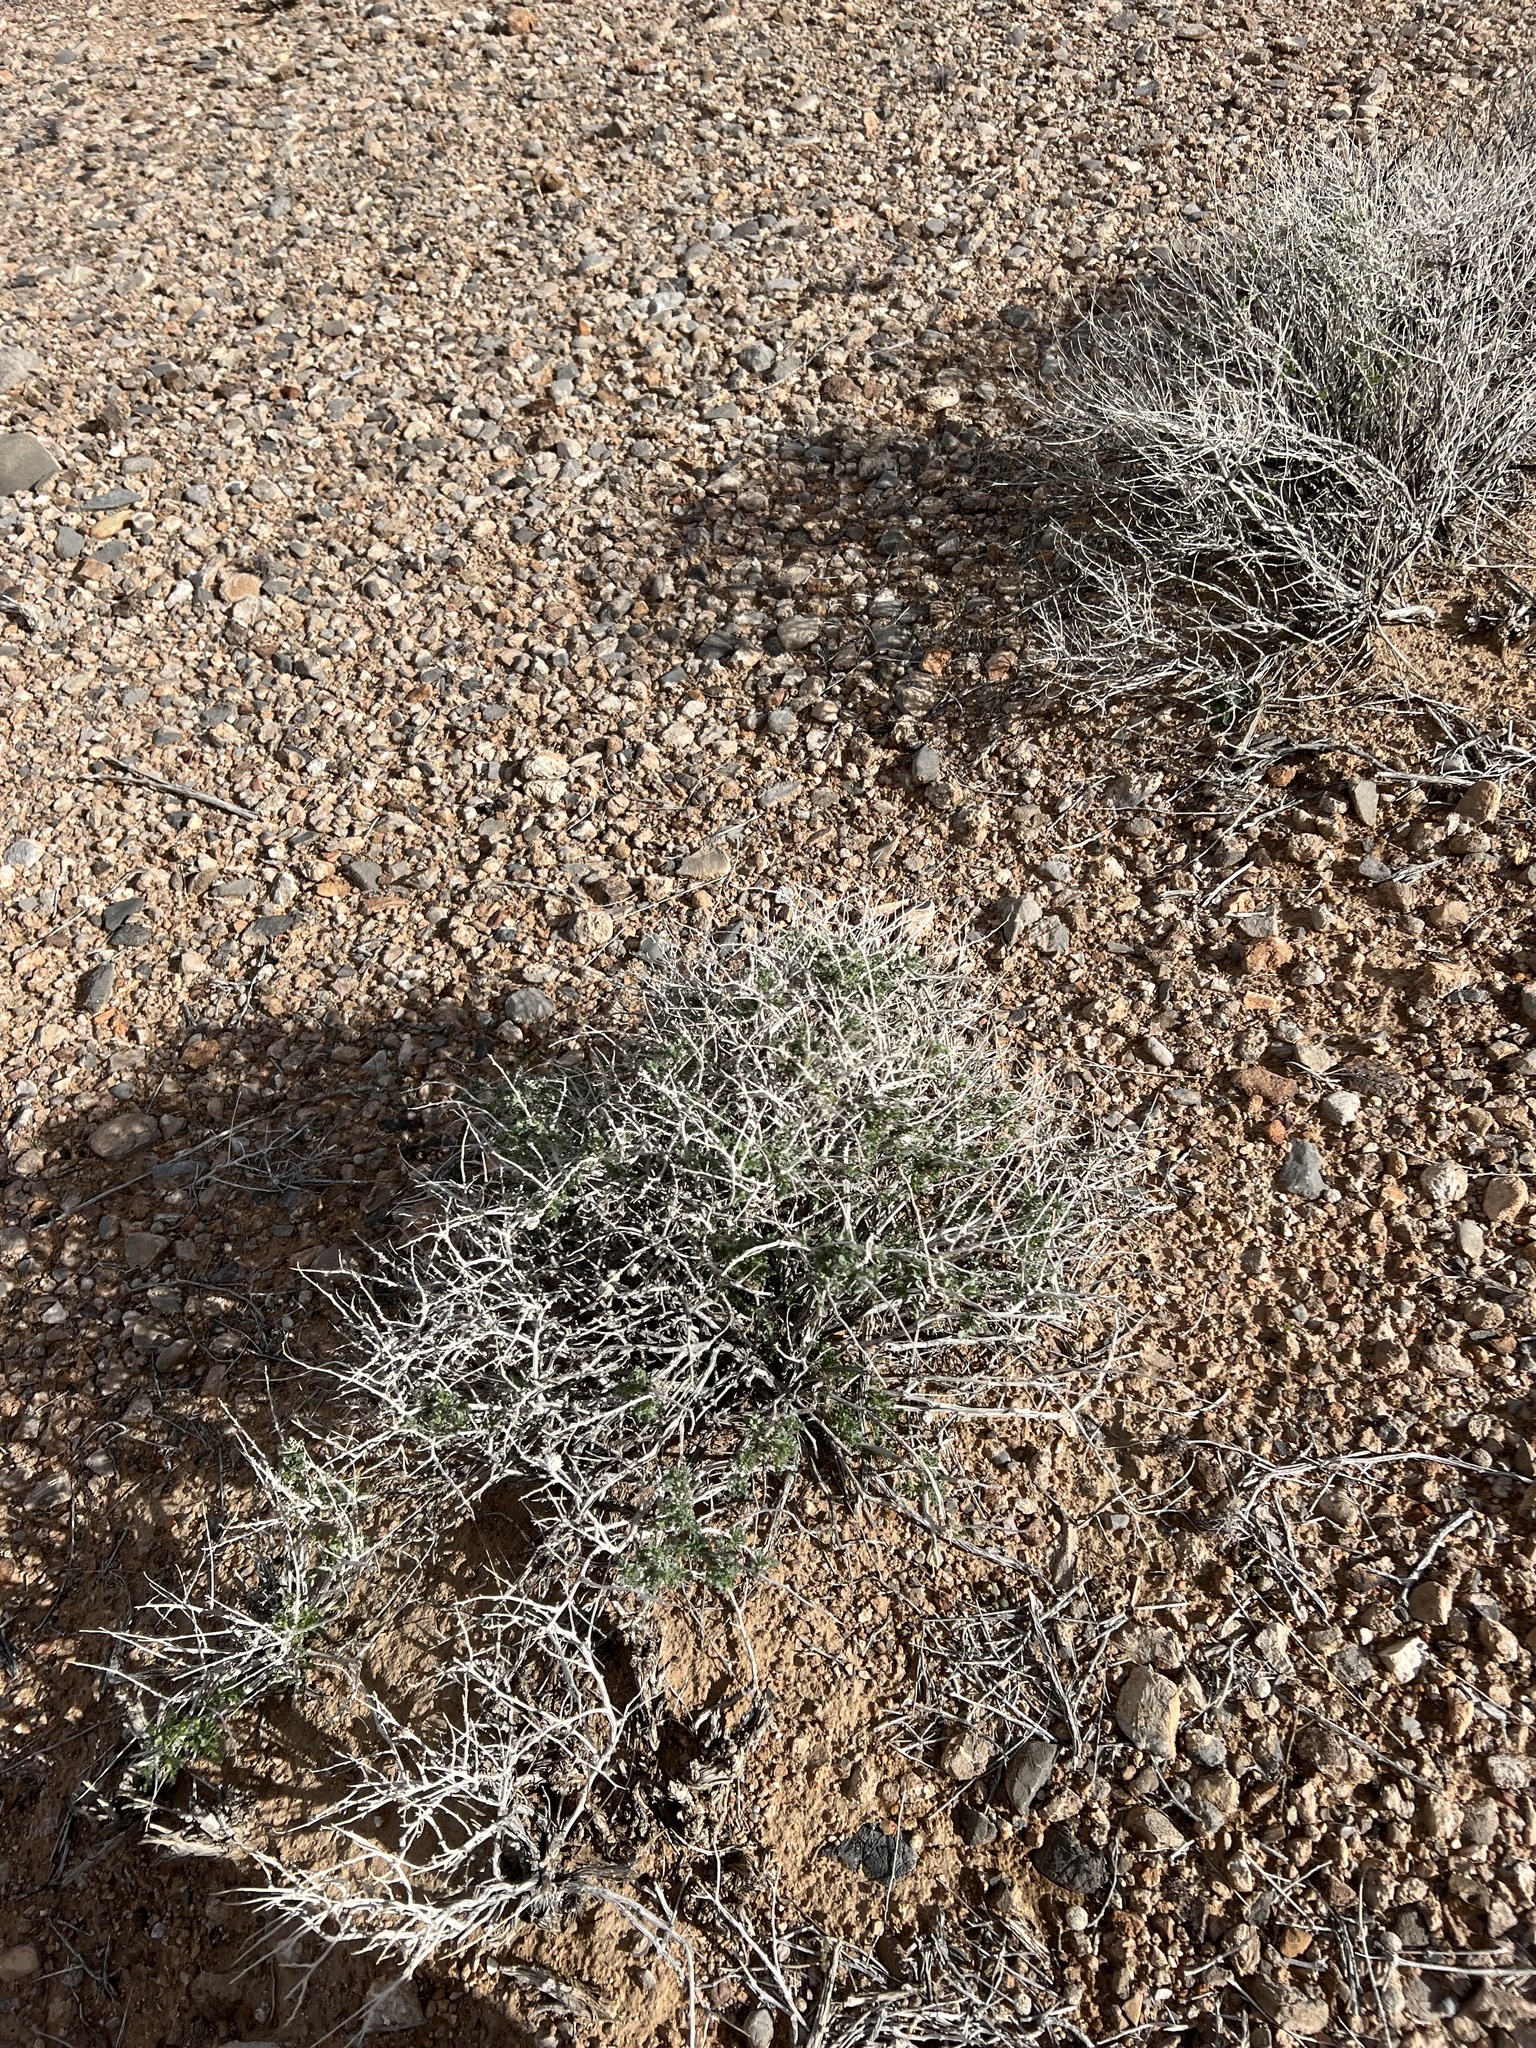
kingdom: Plantae
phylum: Tracheophyta
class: Magnoliopsida
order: Asterales
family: Asteraceae
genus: Ambrosia
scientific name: Ambrosia dumosa
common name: Bur-sage
